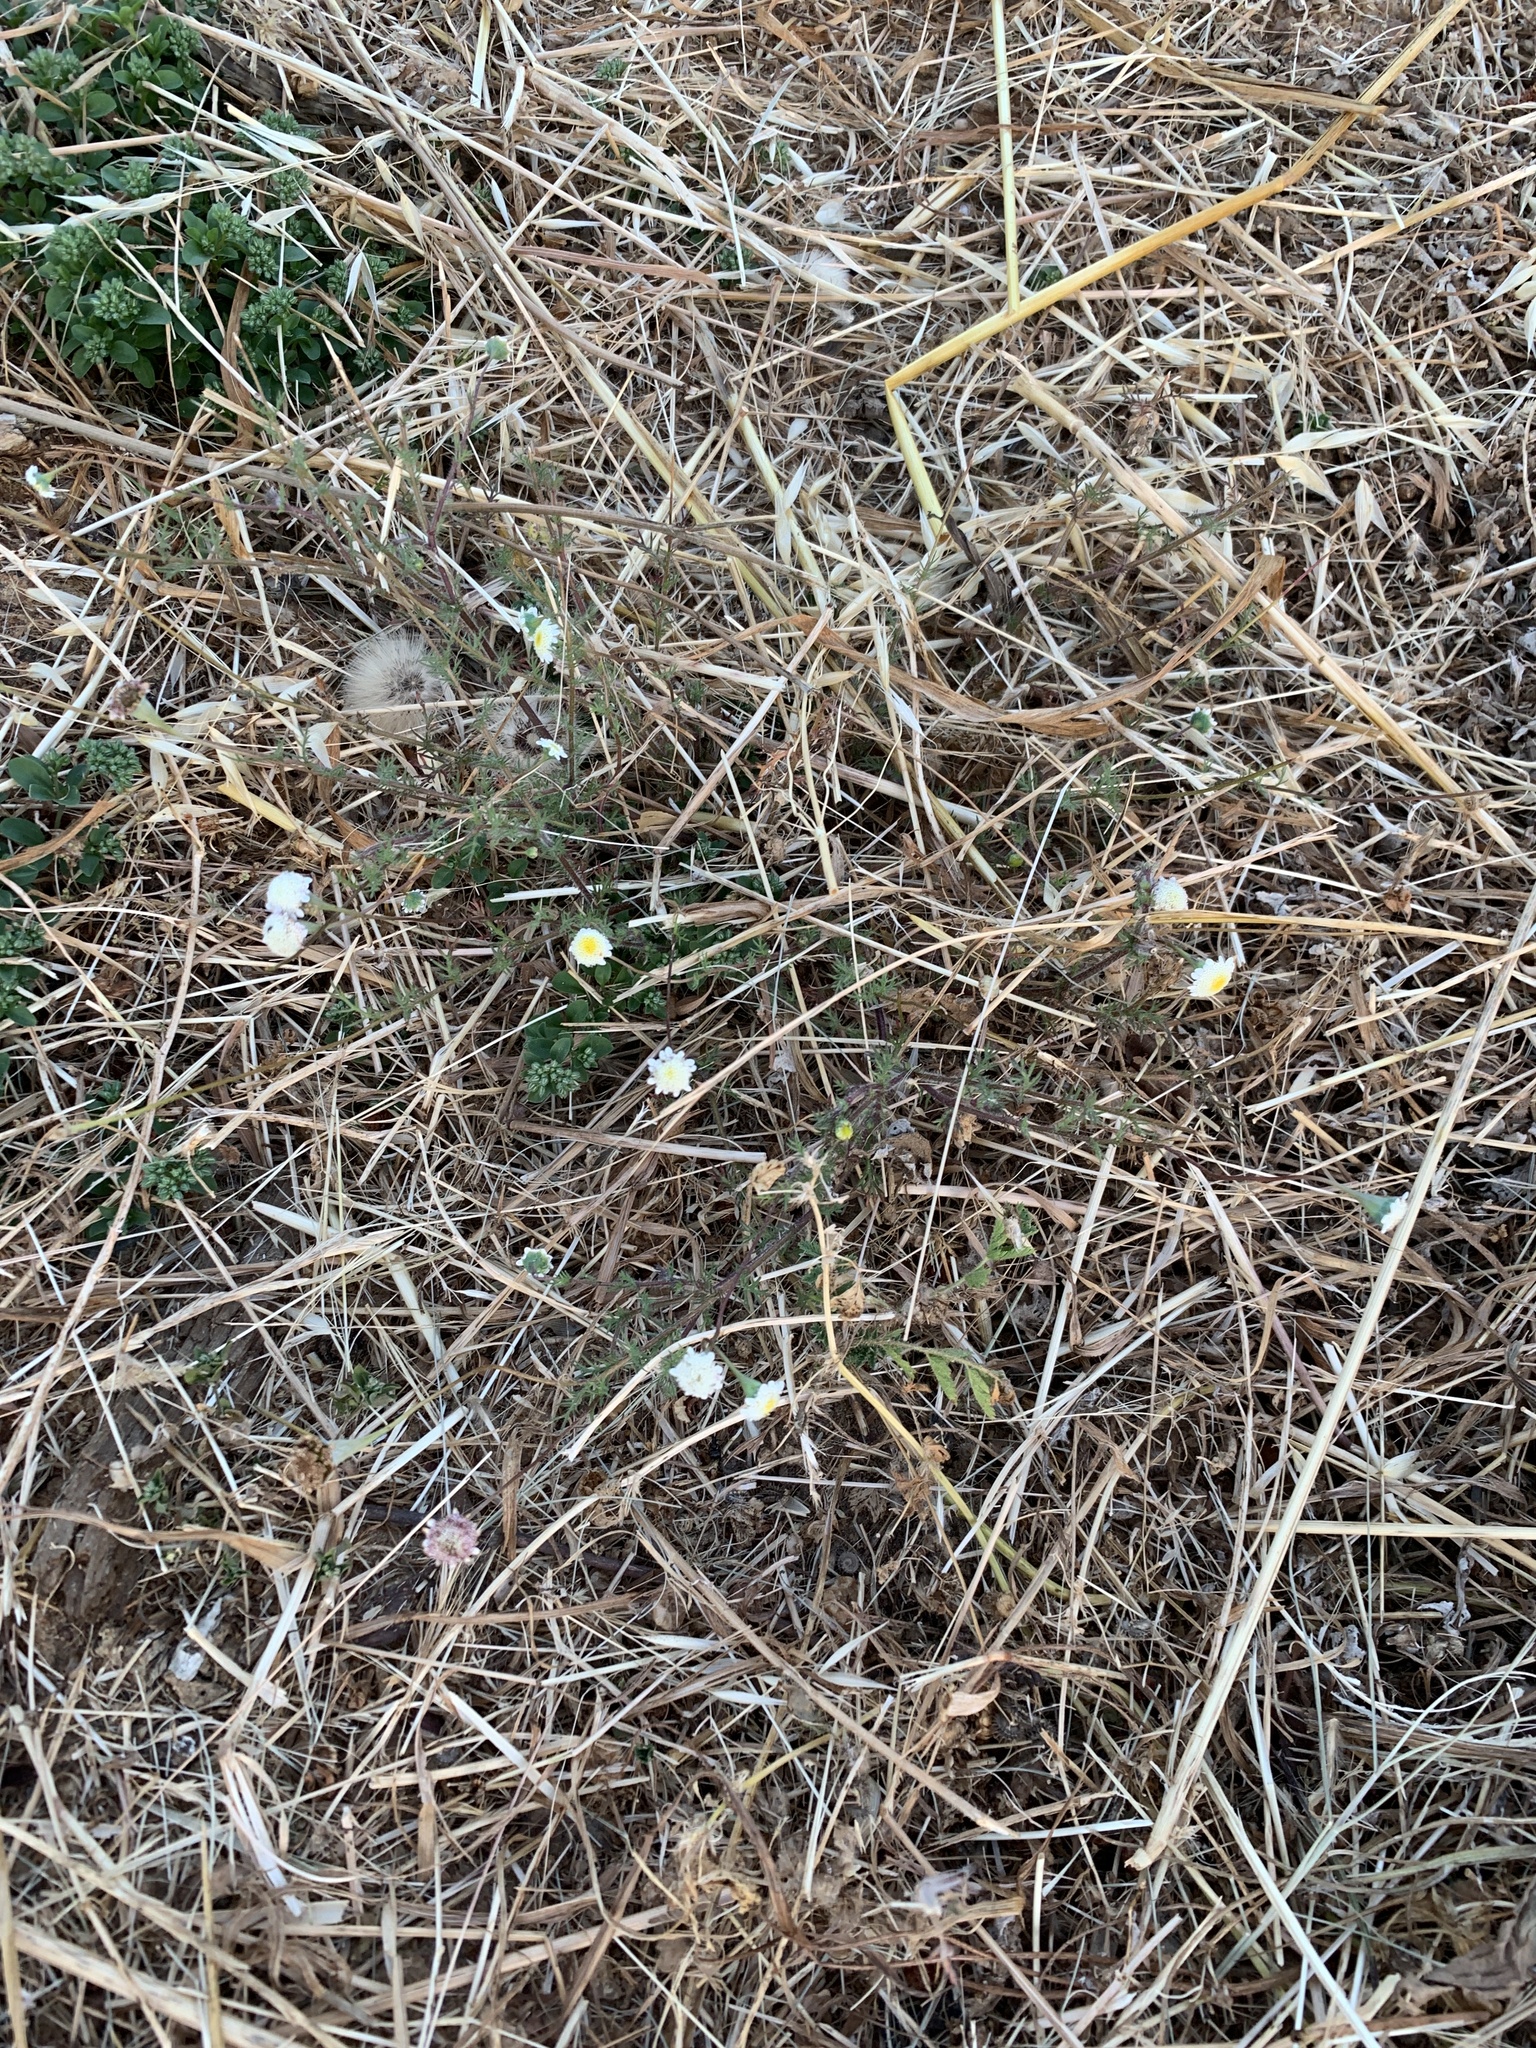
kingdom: Plantae
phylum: Tracheophyta
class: Magnoliopsida
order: Asterales
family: Asteraceae
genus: Cotula
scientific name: Cotula turbinata
